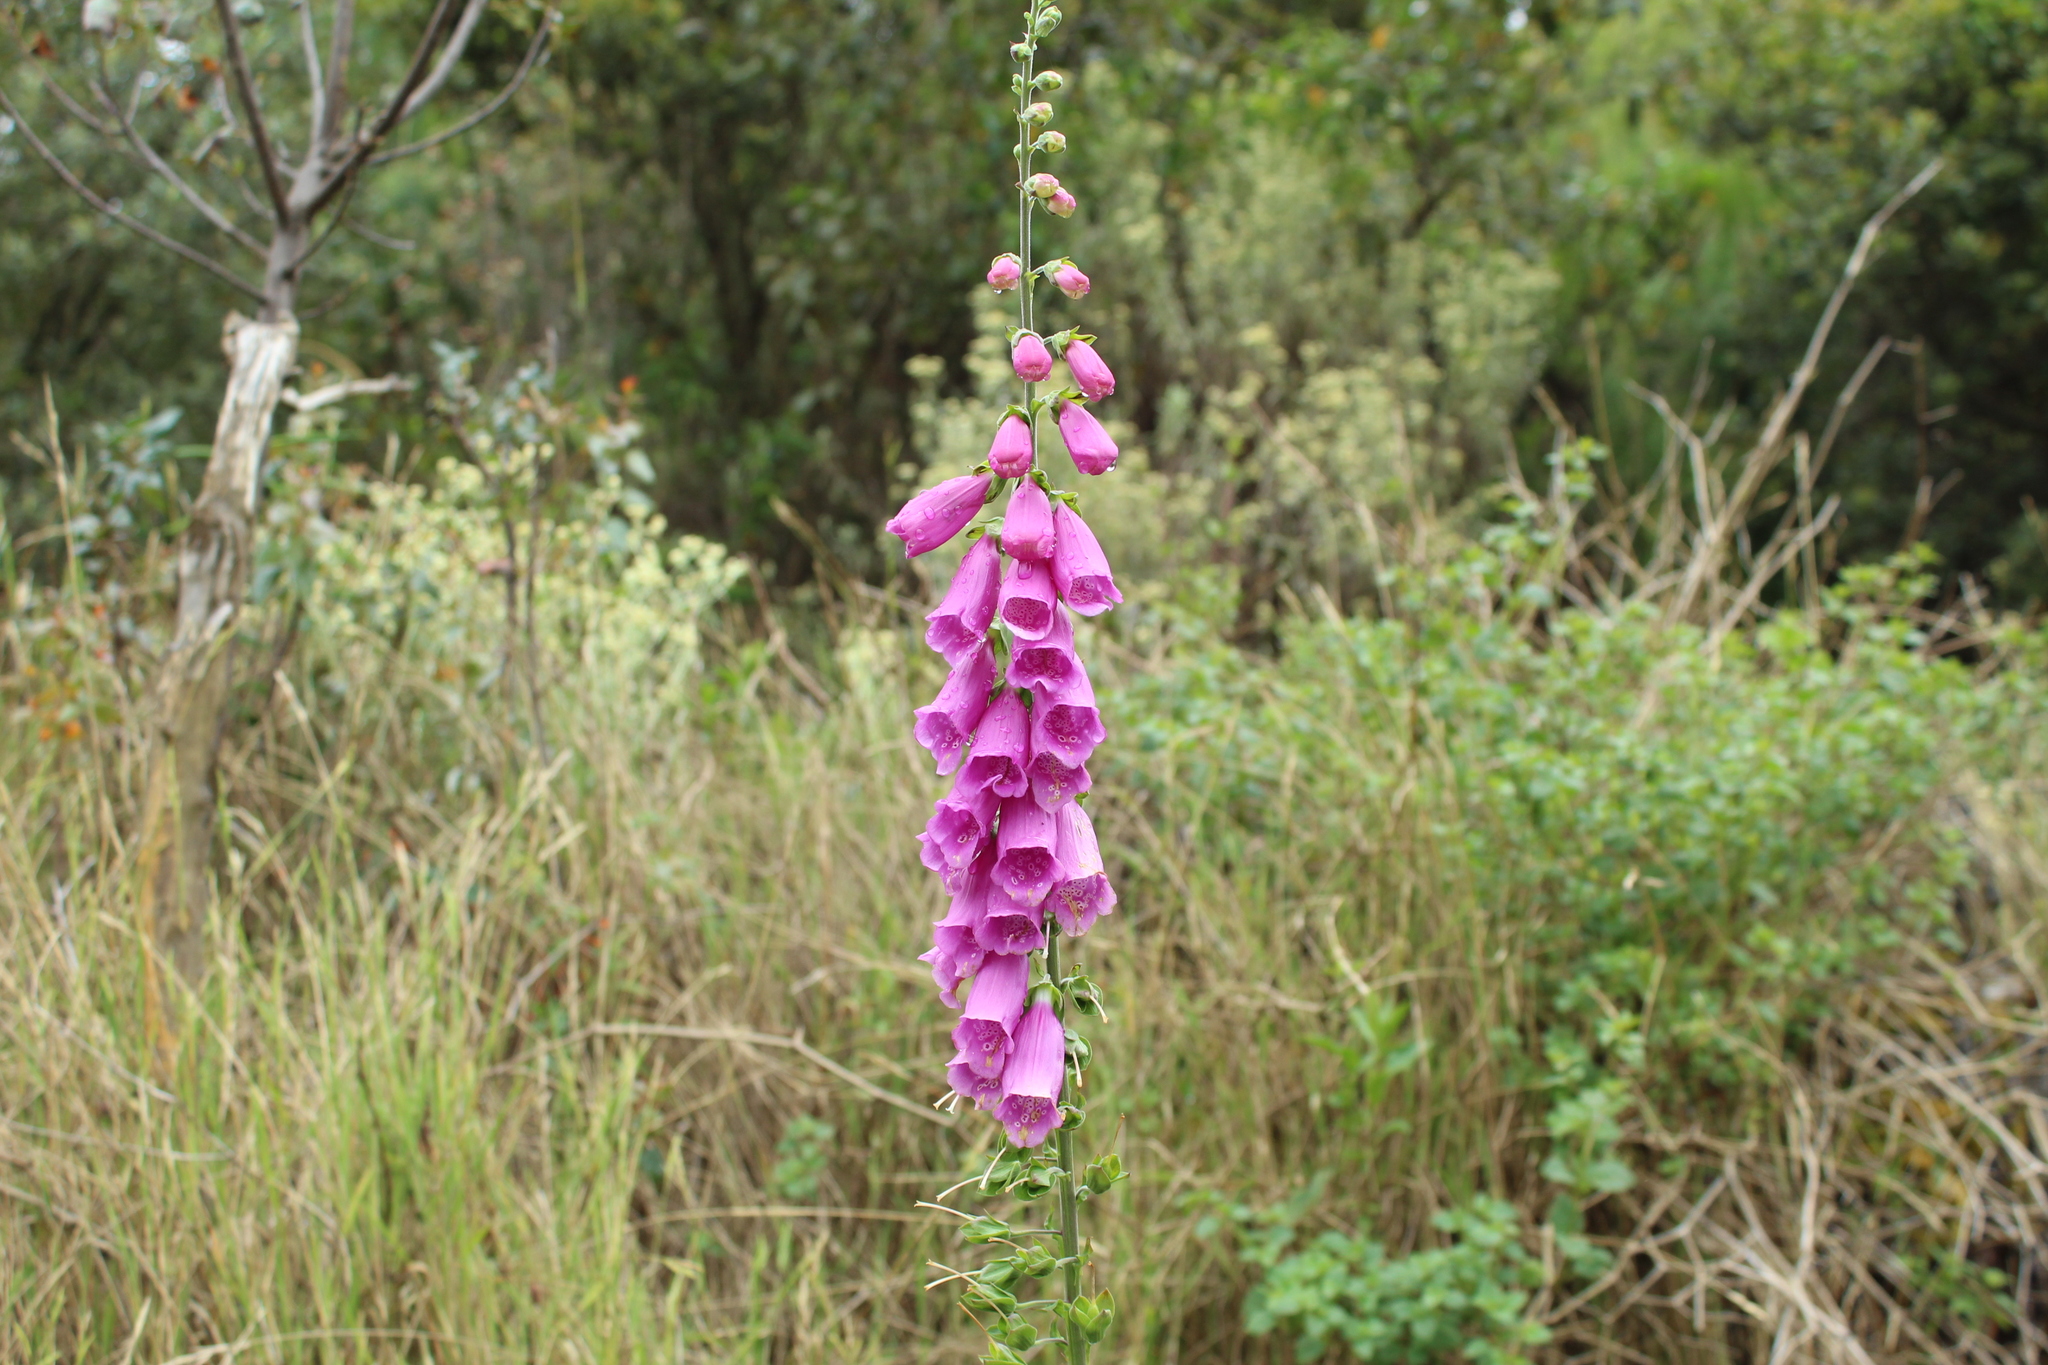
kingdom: Plantae
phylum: Tracheophyta
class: Magnoliopsida
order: Lamiales
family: Plantaginaceae
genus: Digitalis
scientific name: Digitalis purpurea
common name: Foxglove
